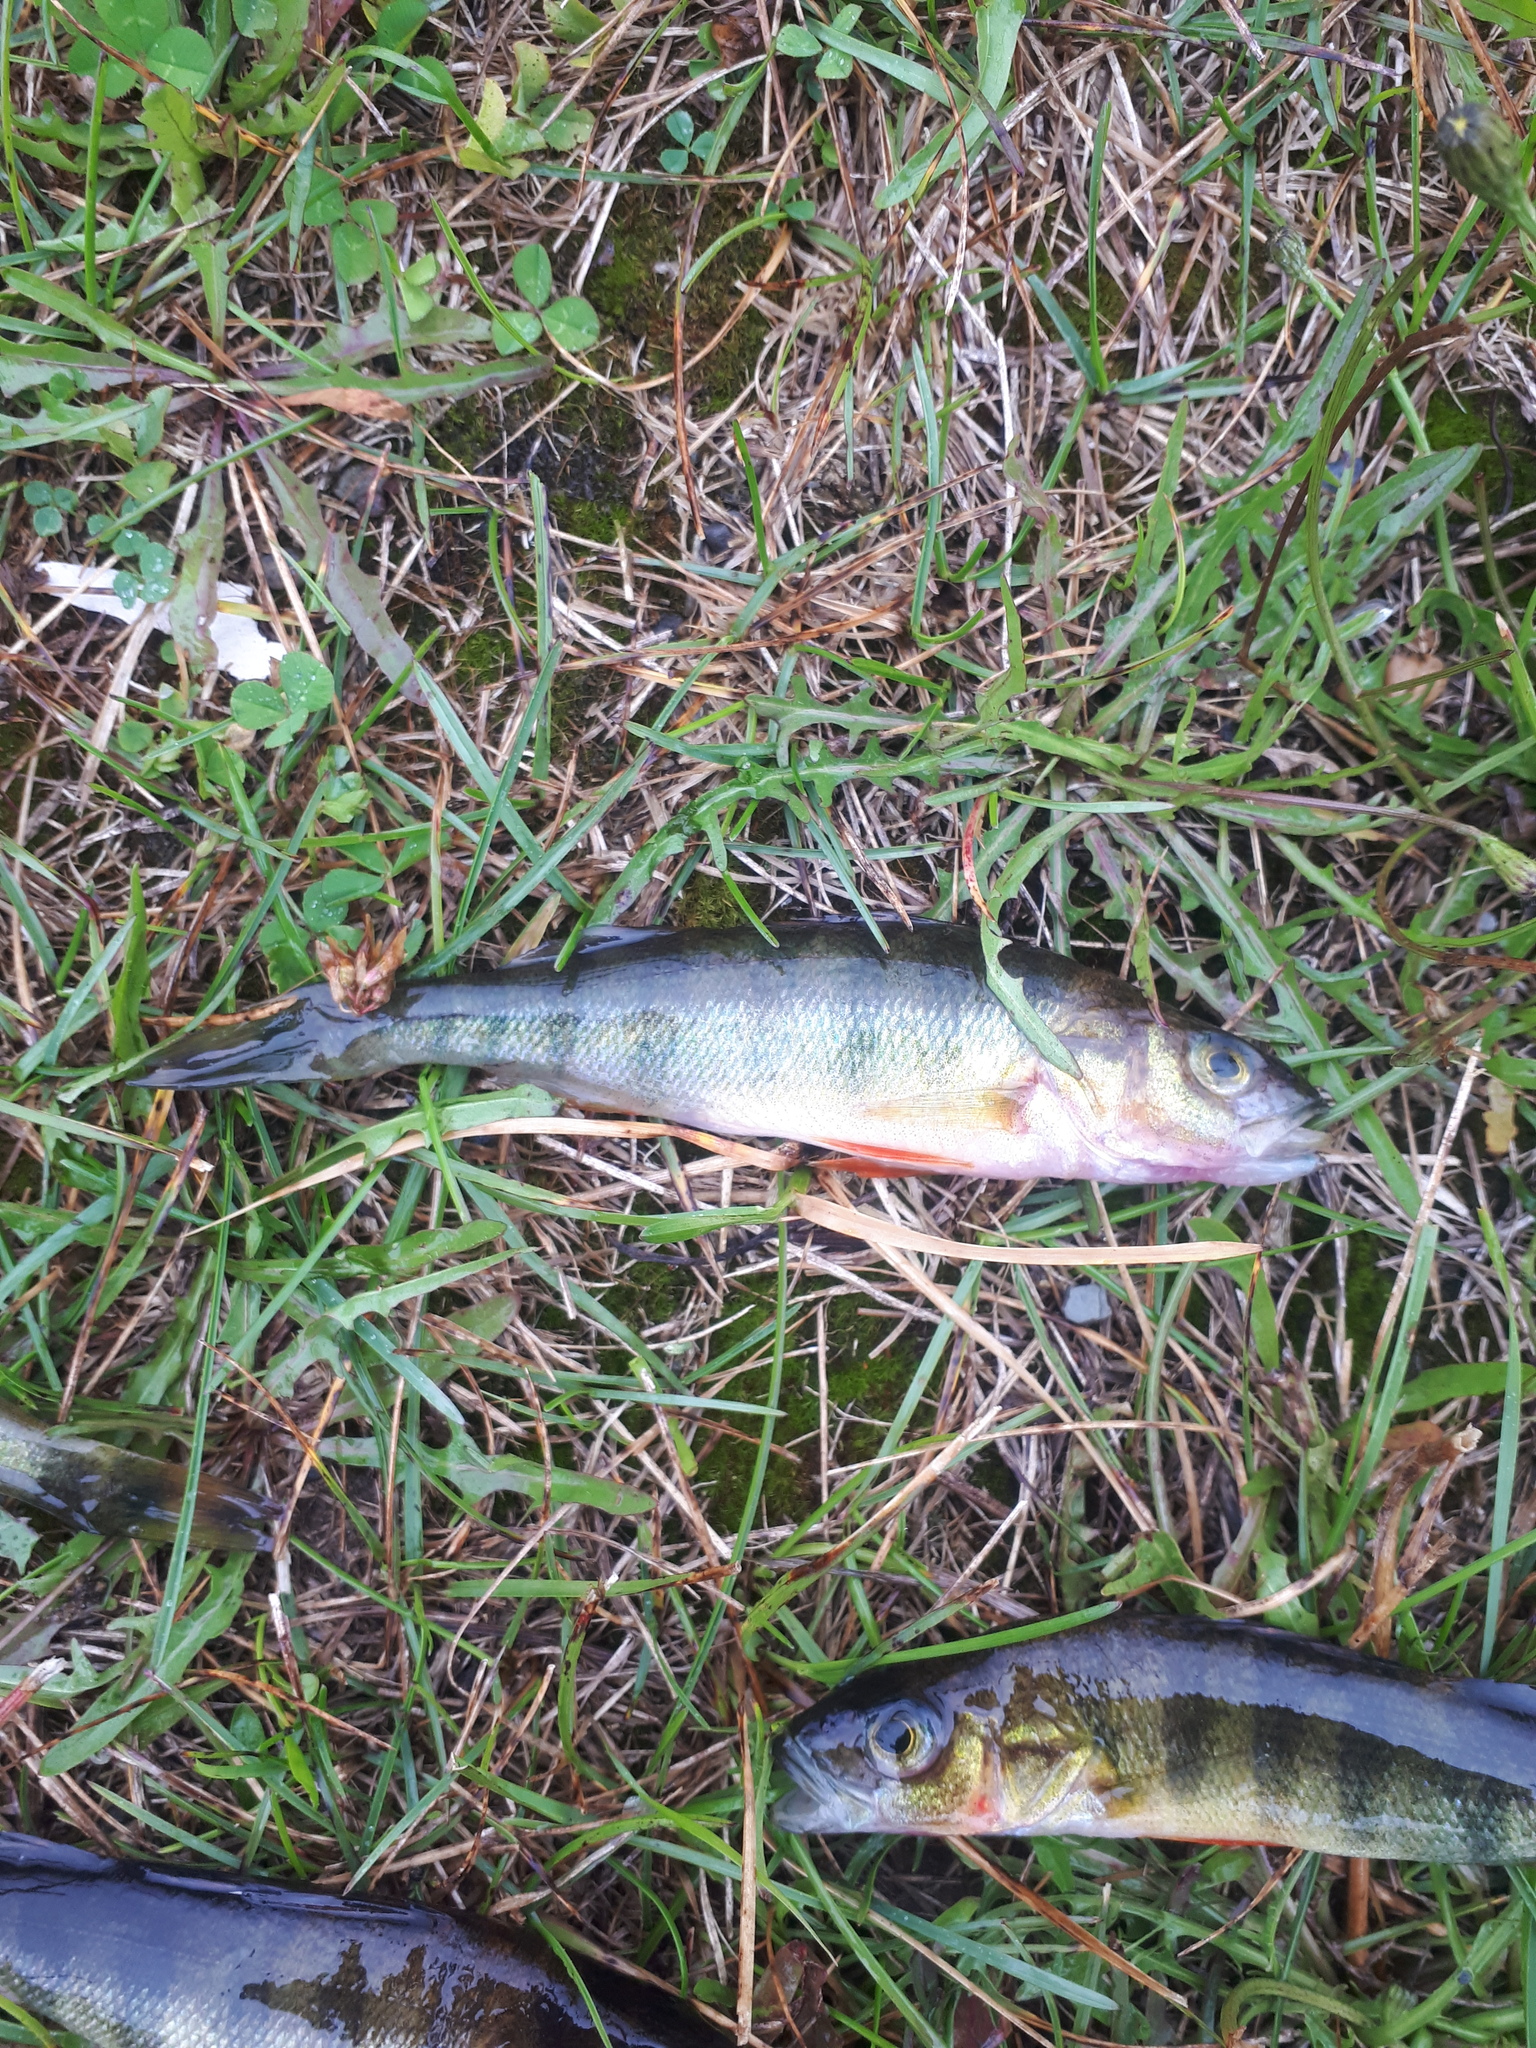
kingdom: Animalia
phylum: Chordata
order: Perciformes
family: Percidae
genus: Perca
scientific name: Perca flavescens
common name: Yellow perch
